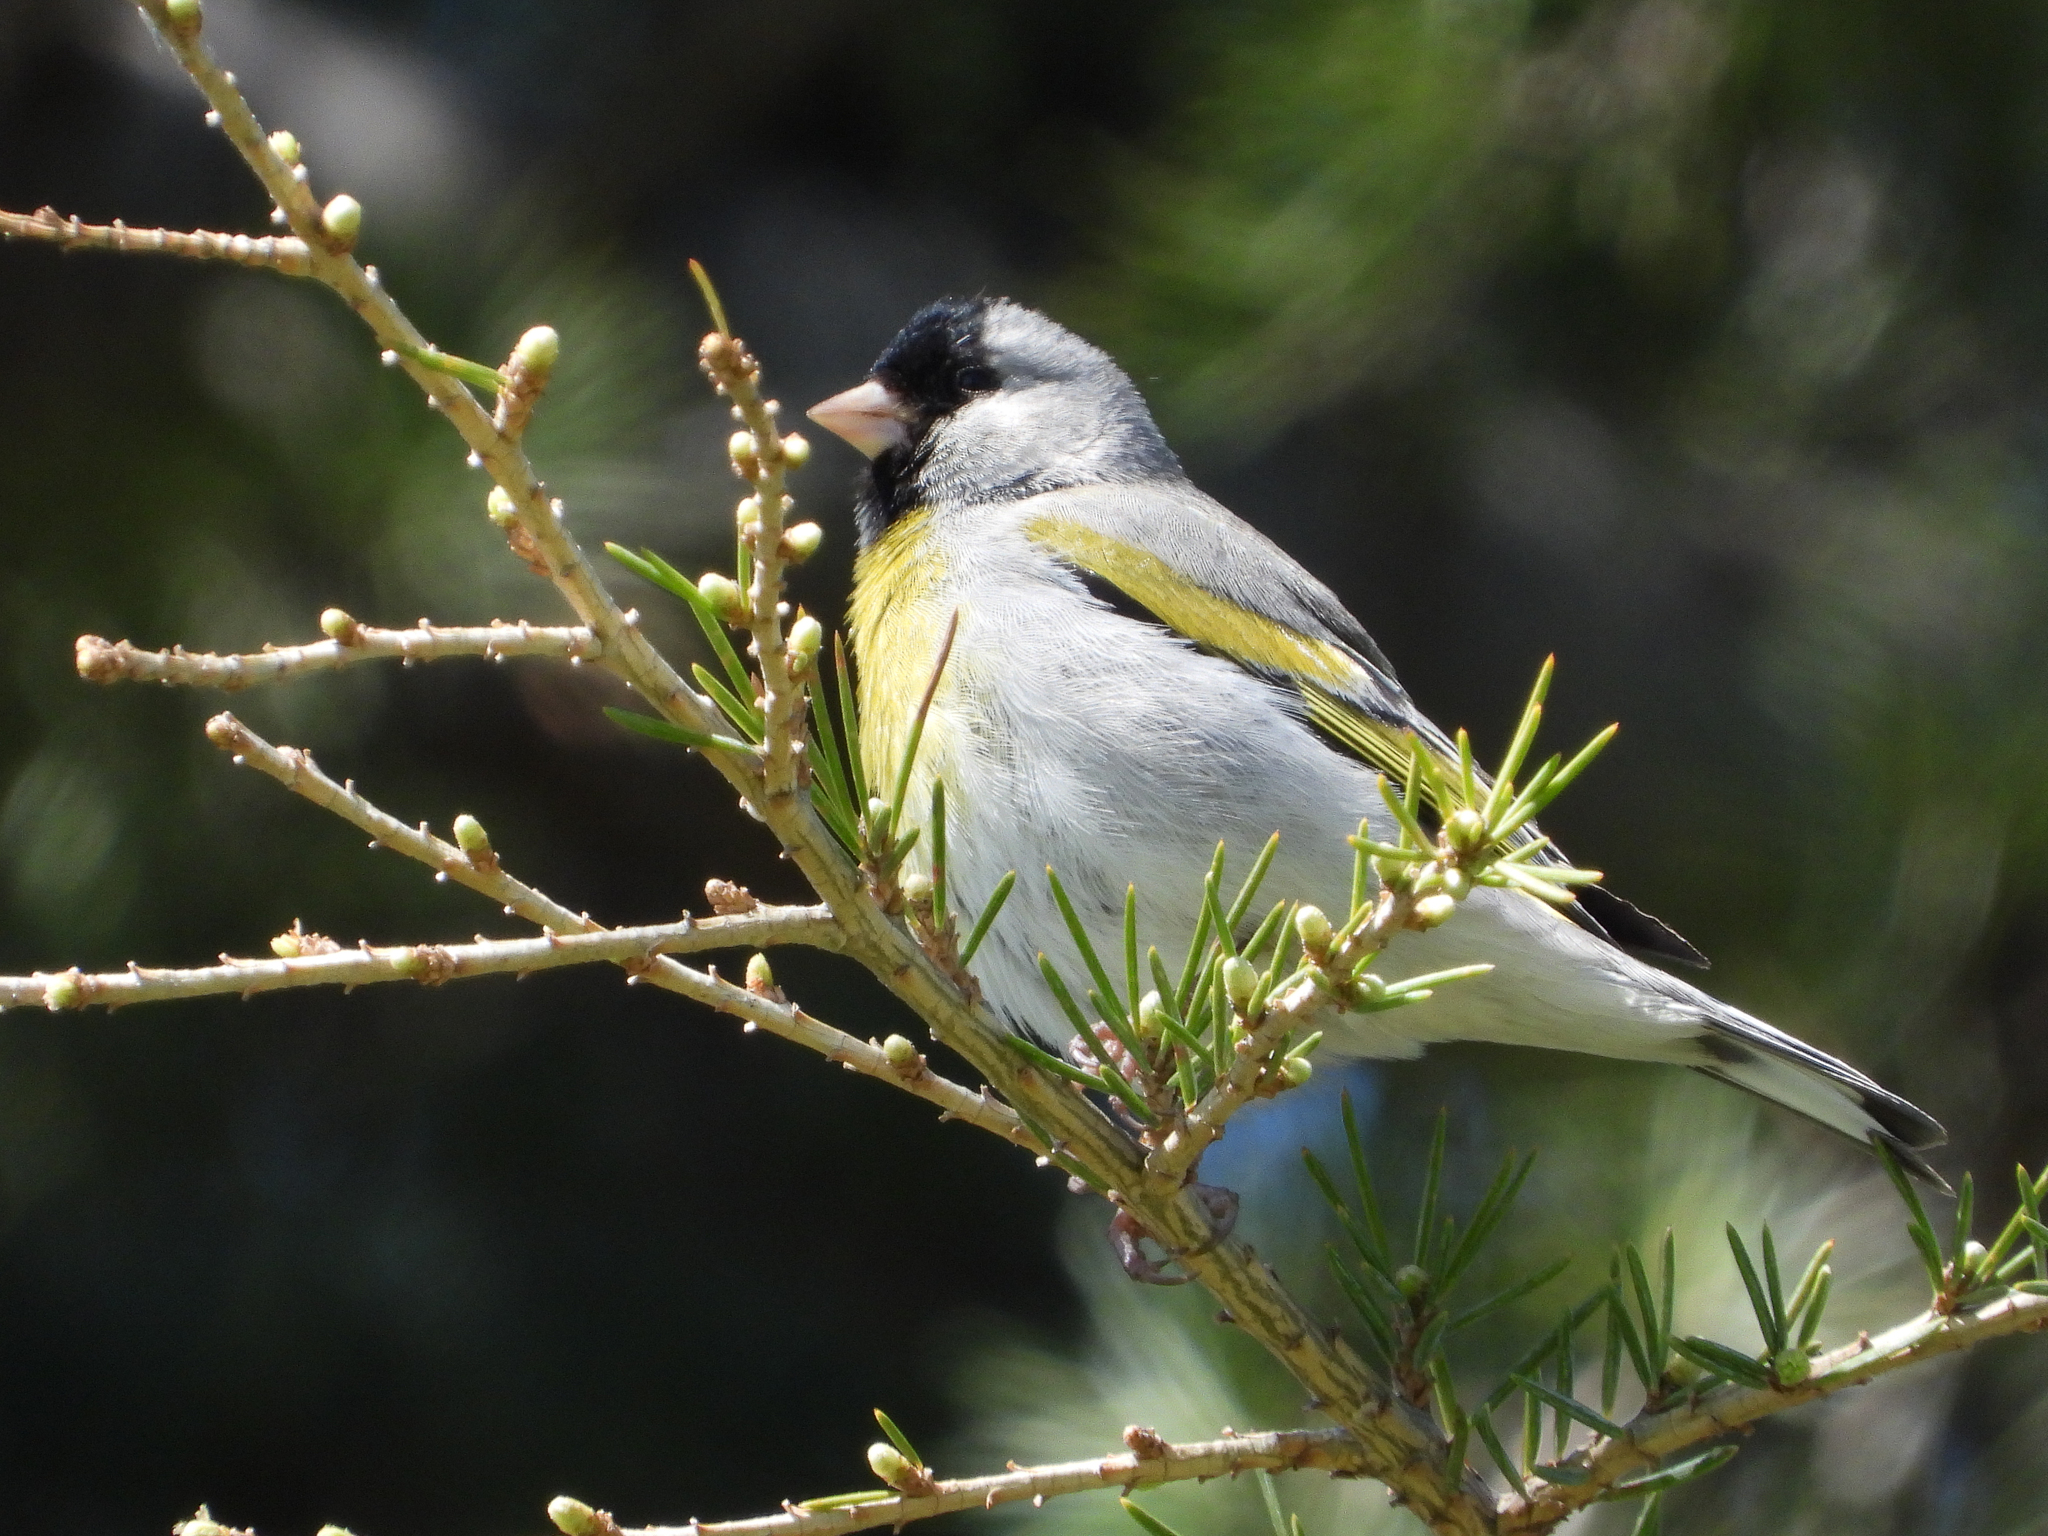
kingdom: Animalia
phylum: Chordata
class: Aves
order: Passeriformes
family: Fringillidae
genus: Spinus
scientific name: Spinus lawrencei
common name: Lawrence's goldfinch
